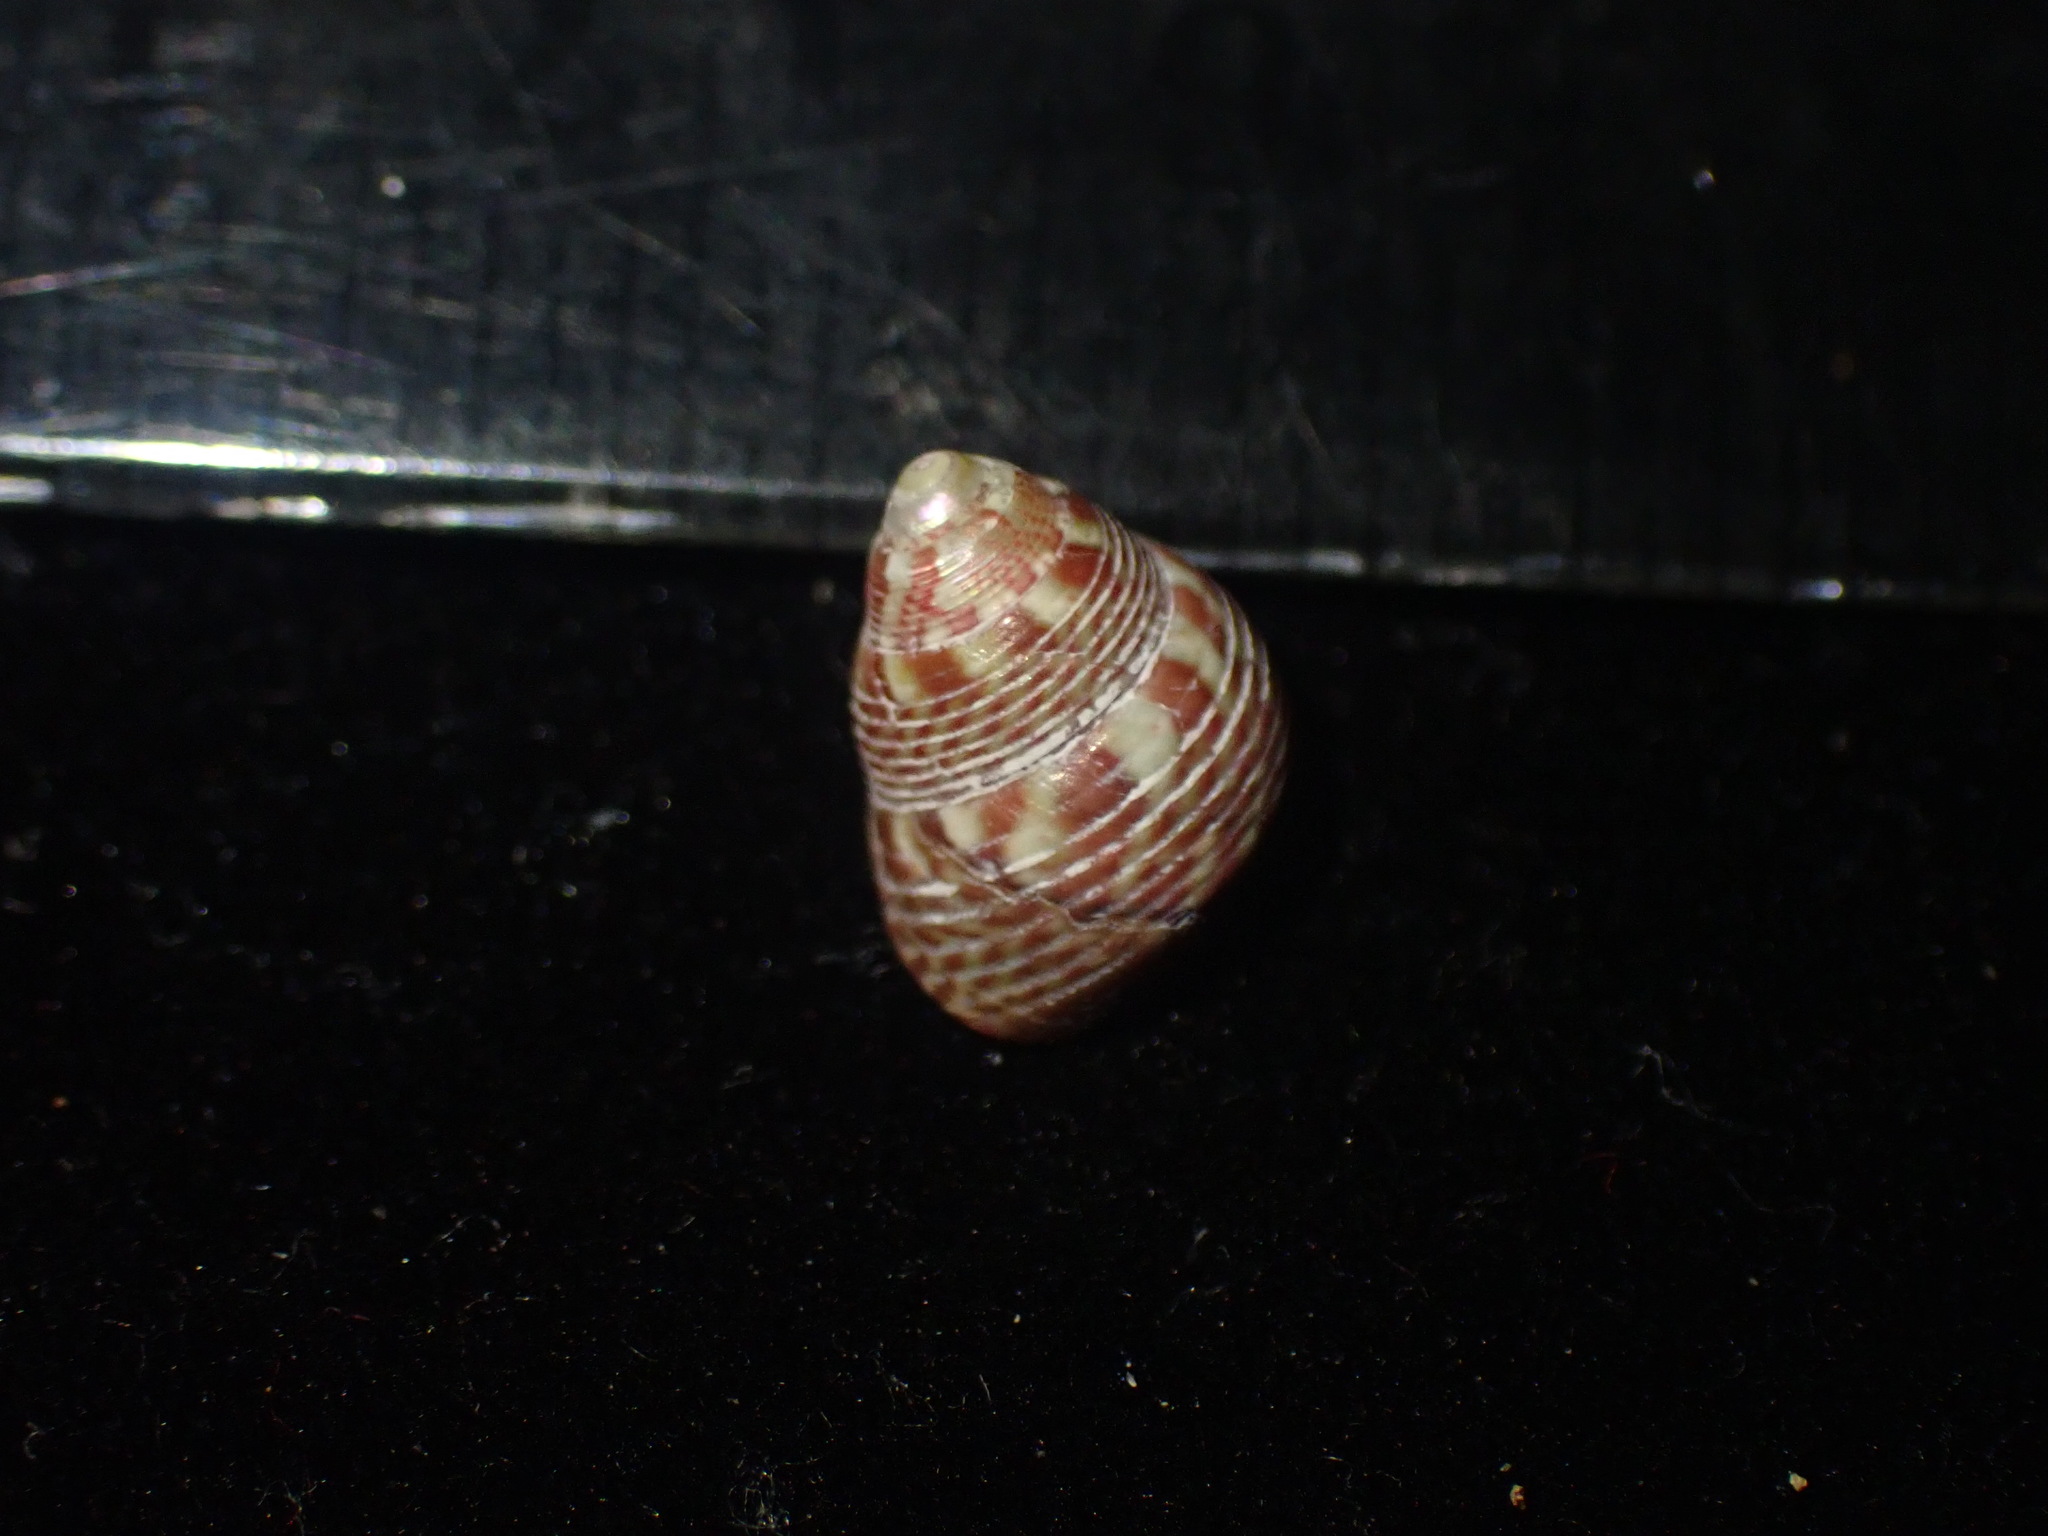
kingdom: Animalia
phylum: Mollusca
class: Gastropoda
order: Trochida
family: Trochidae
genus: Micrelenchus
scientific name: Micrelenchus sanguineus
